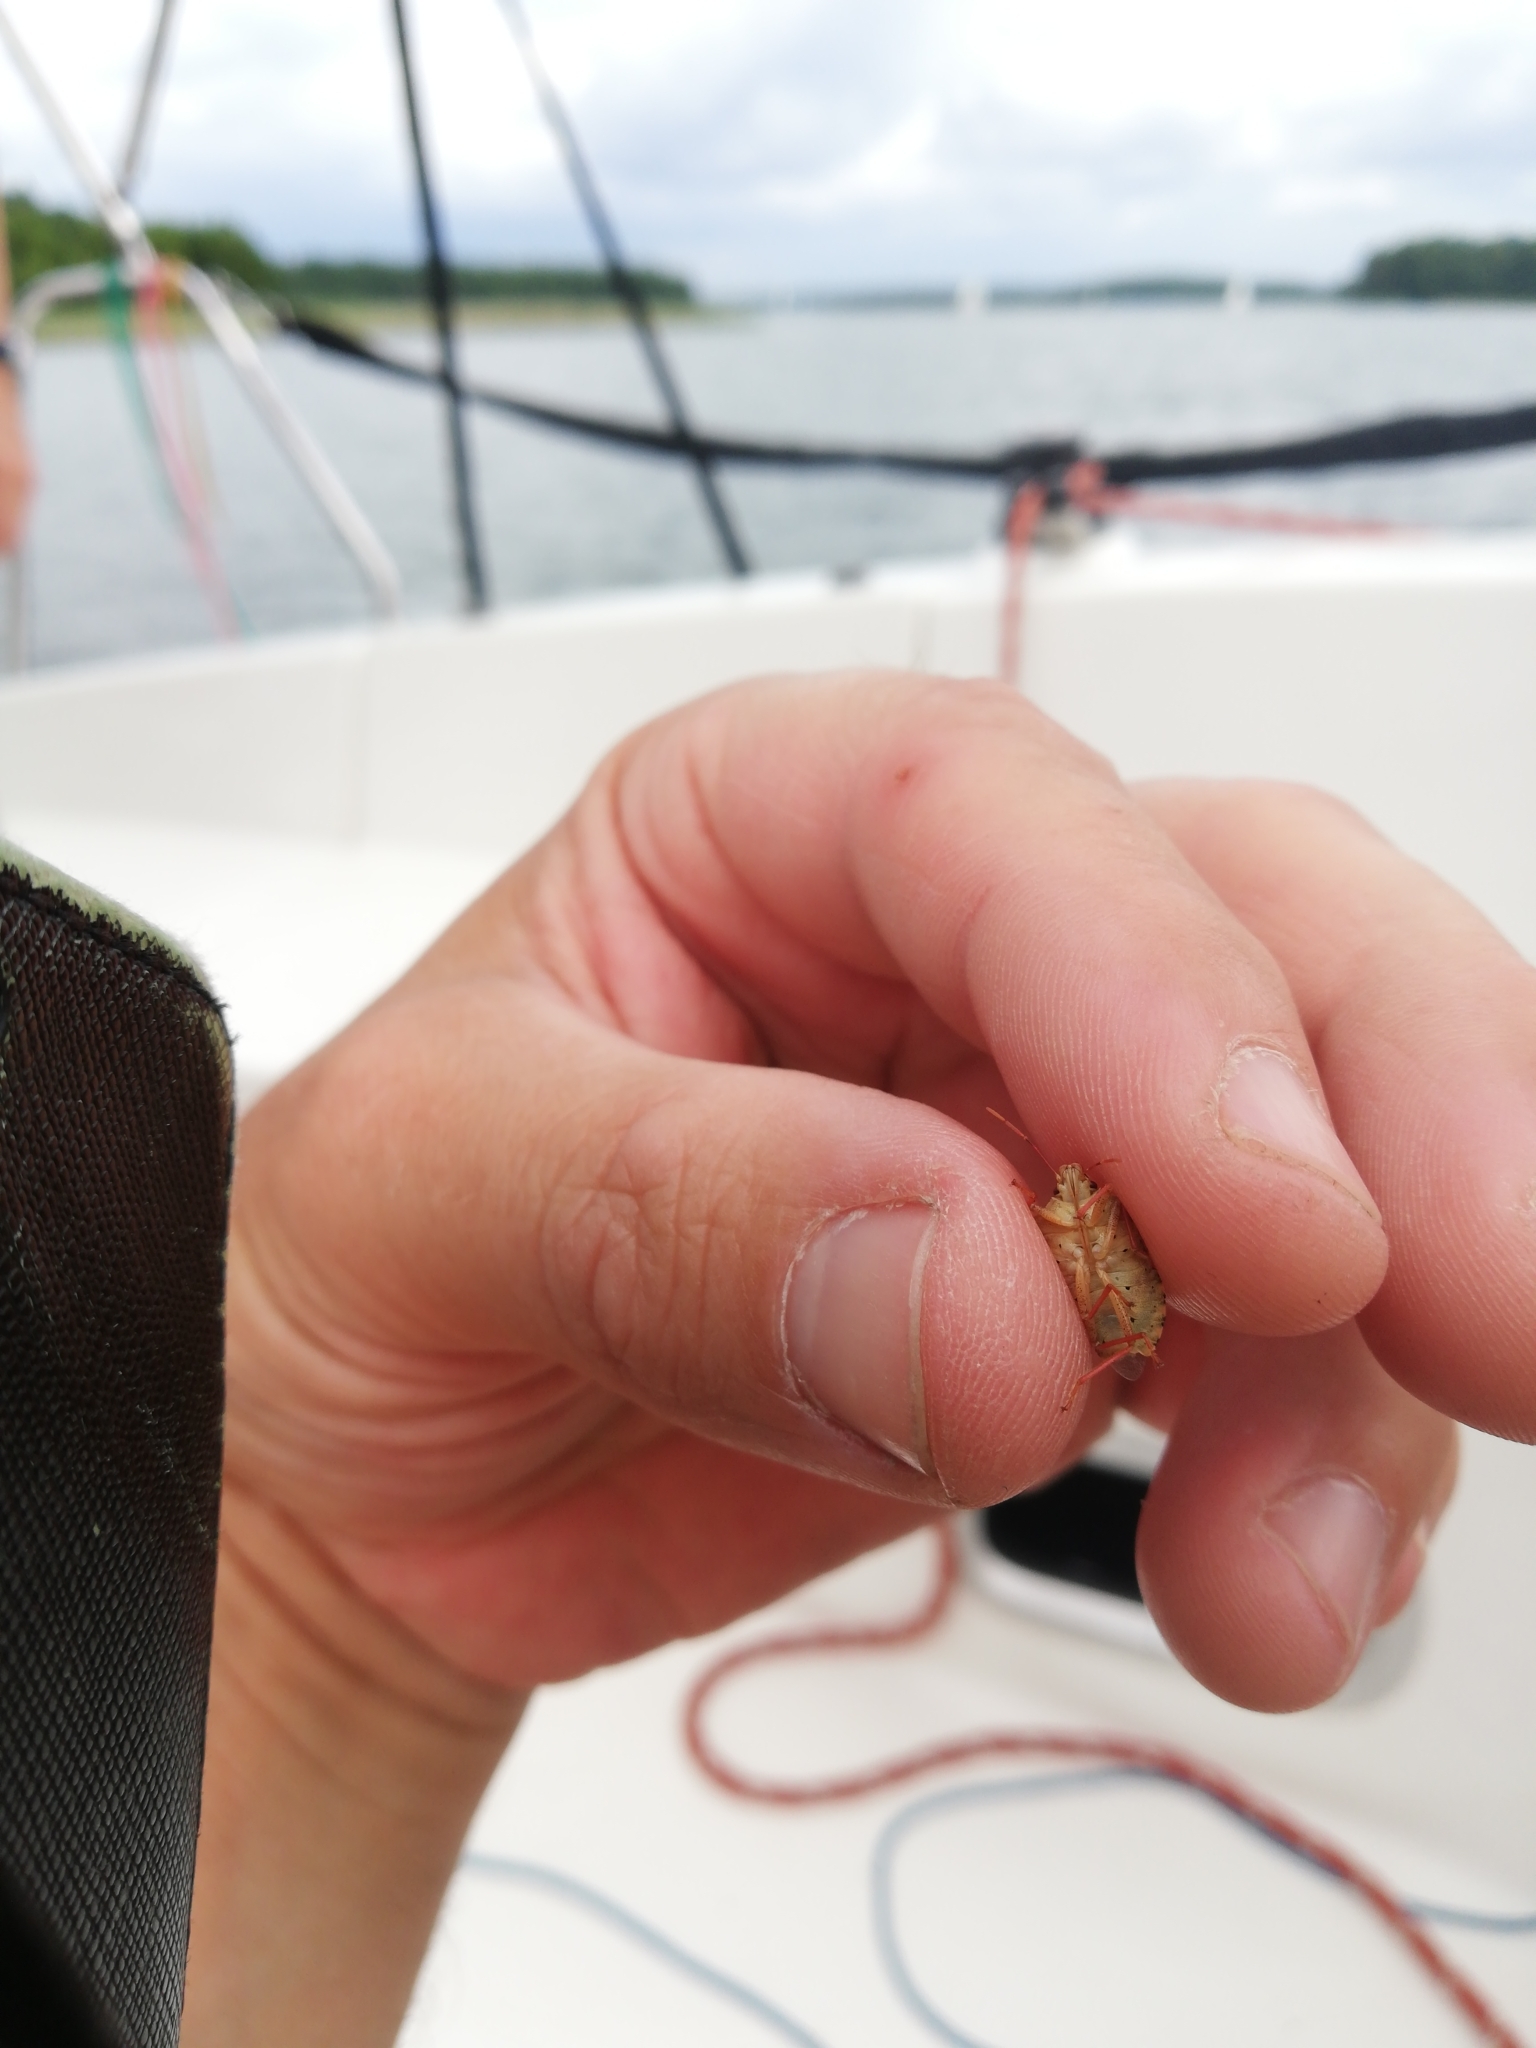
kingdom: Animalia
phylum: Arthropoda
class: Insecta
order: Hemiptera
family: Pentatomidae
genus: Arma
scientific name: Arma custos
